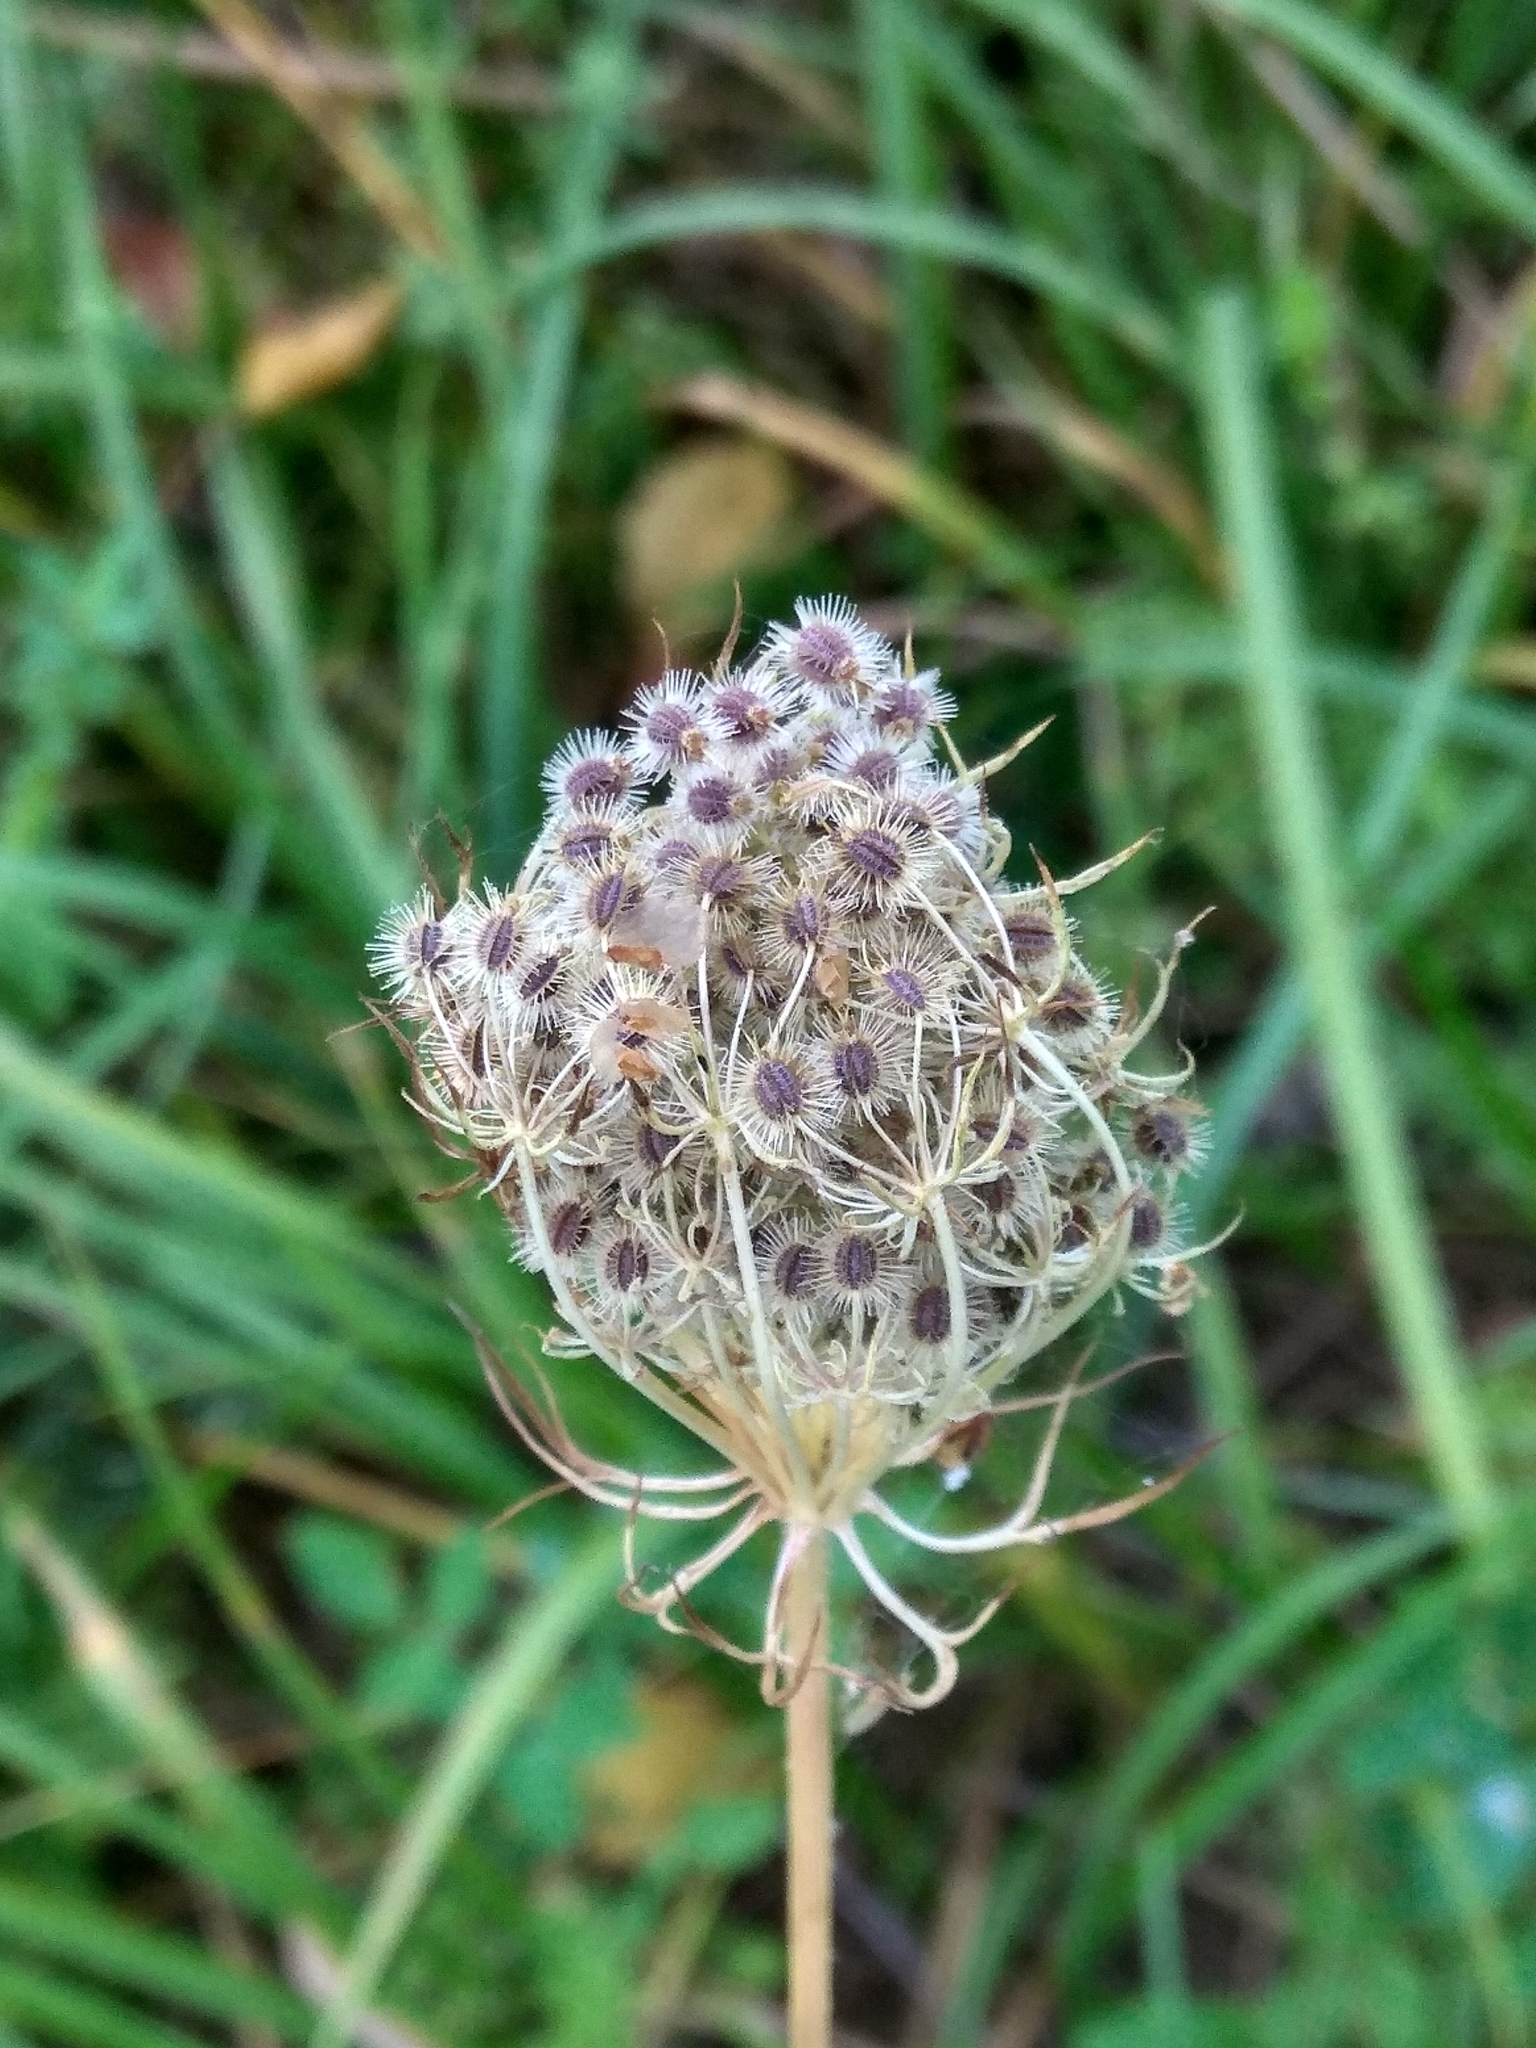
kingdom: Plantae
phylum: Tracheophyta
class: Magnoliopsida
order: Apiales
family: Apiaceae
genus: Daucus
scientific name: Daucus carota
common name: Wild carrot
